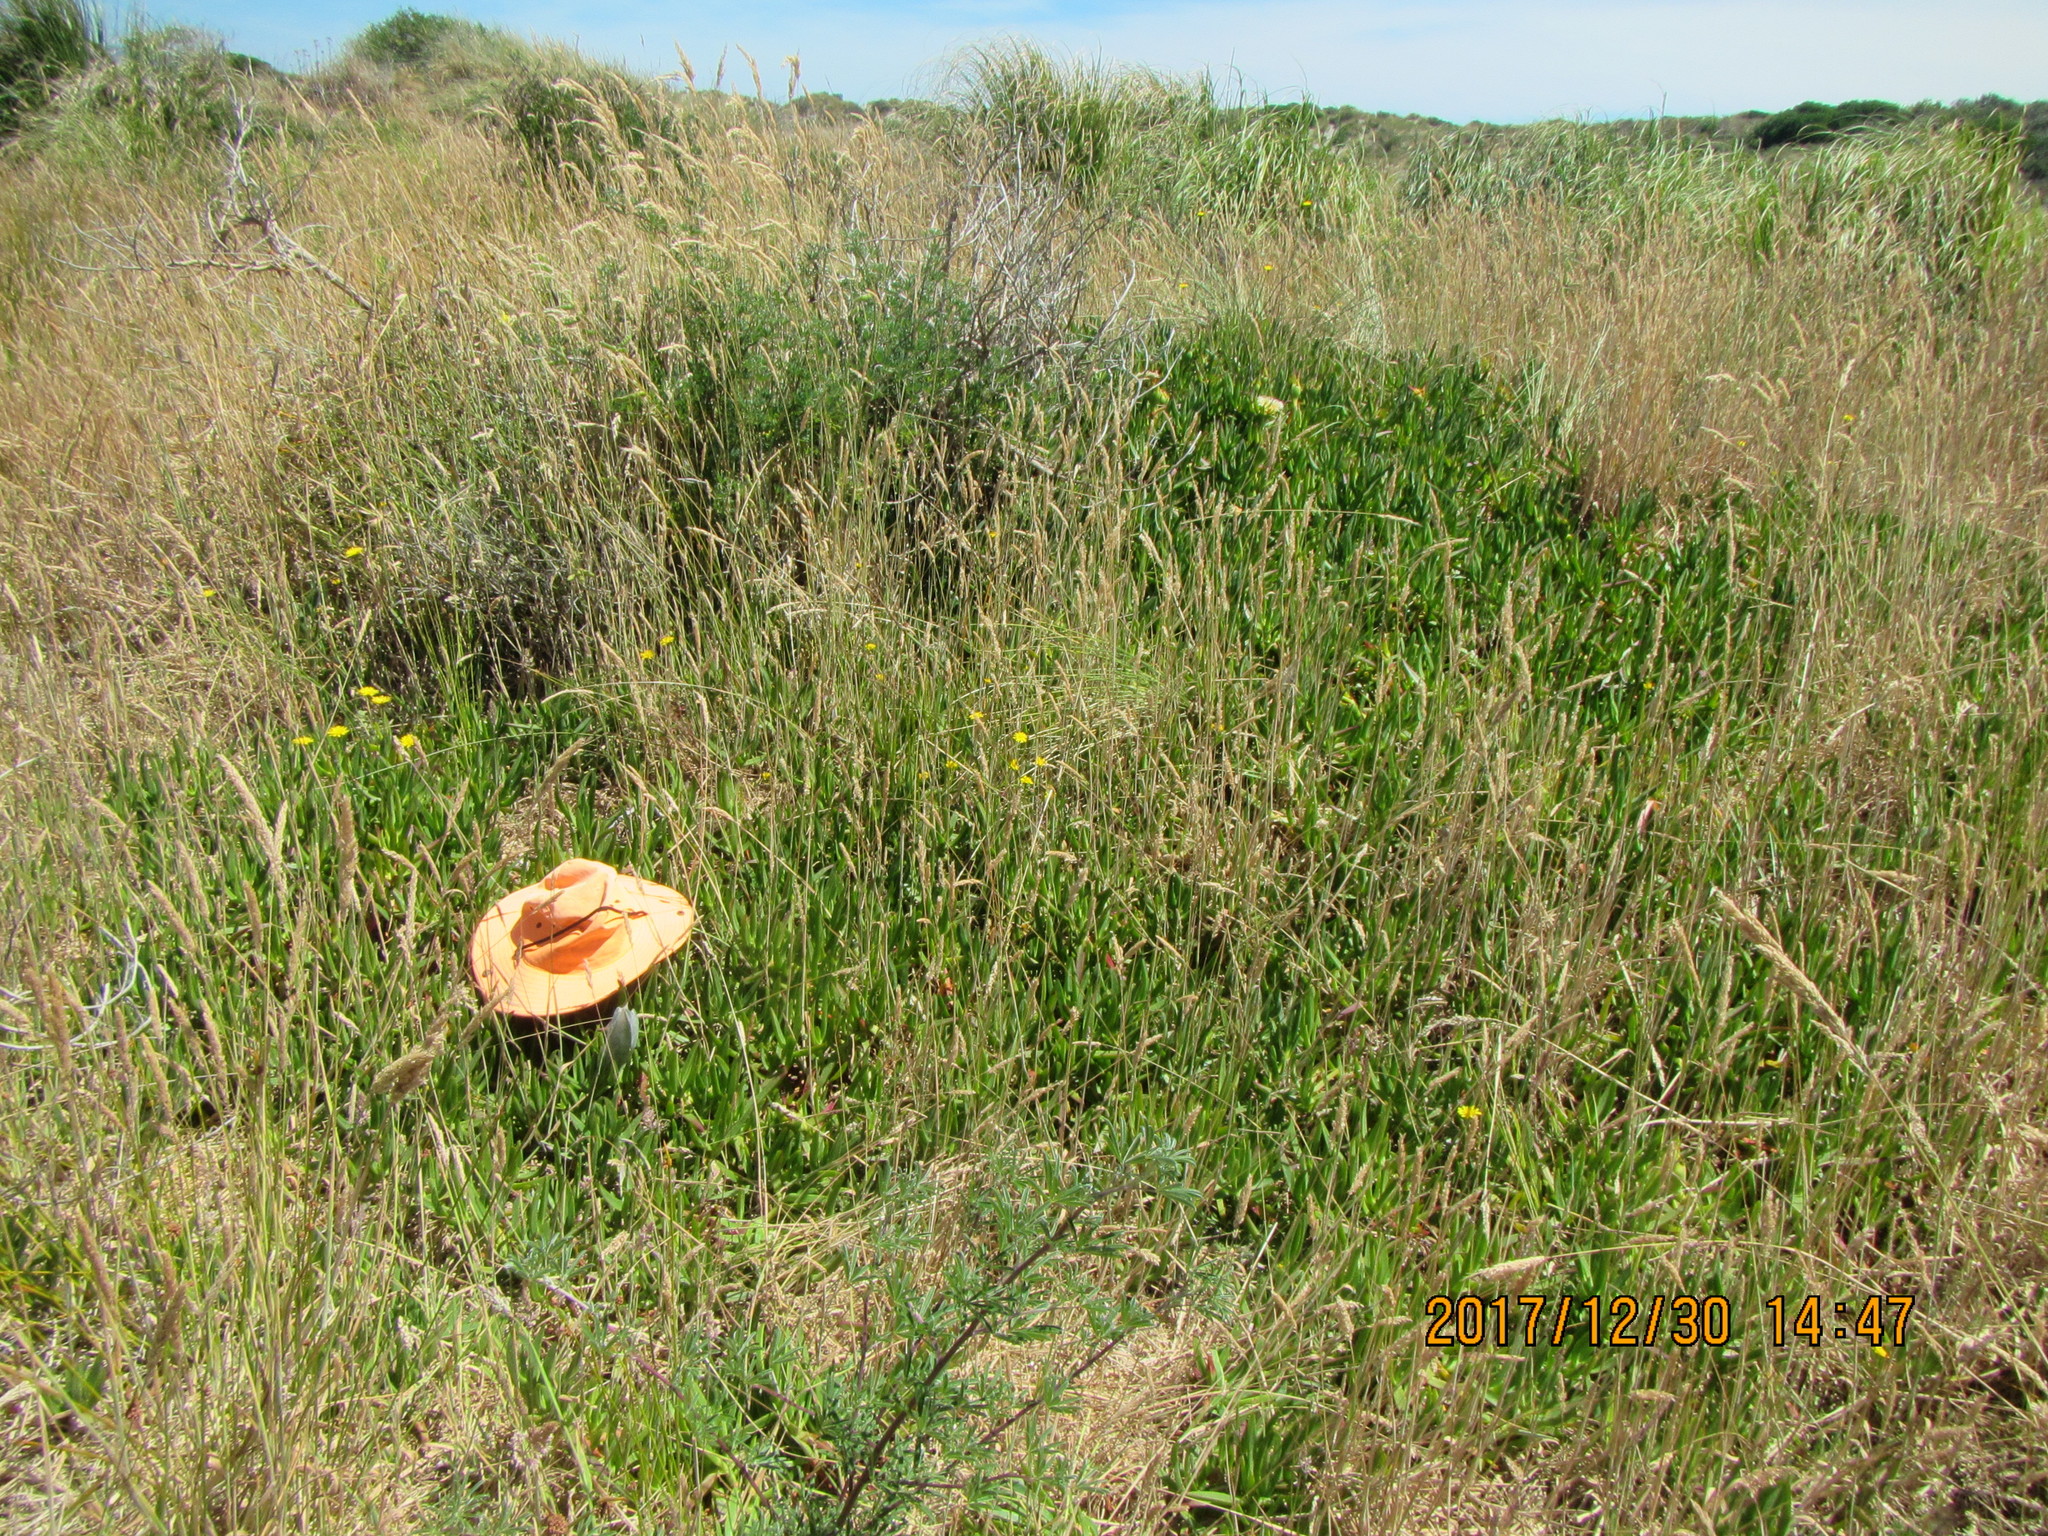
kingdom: Animalia
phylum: Arthropoda
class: Arachnida
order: Araneae
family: Pisauridae
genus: Dolomedes
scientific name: Dolomedes minor
